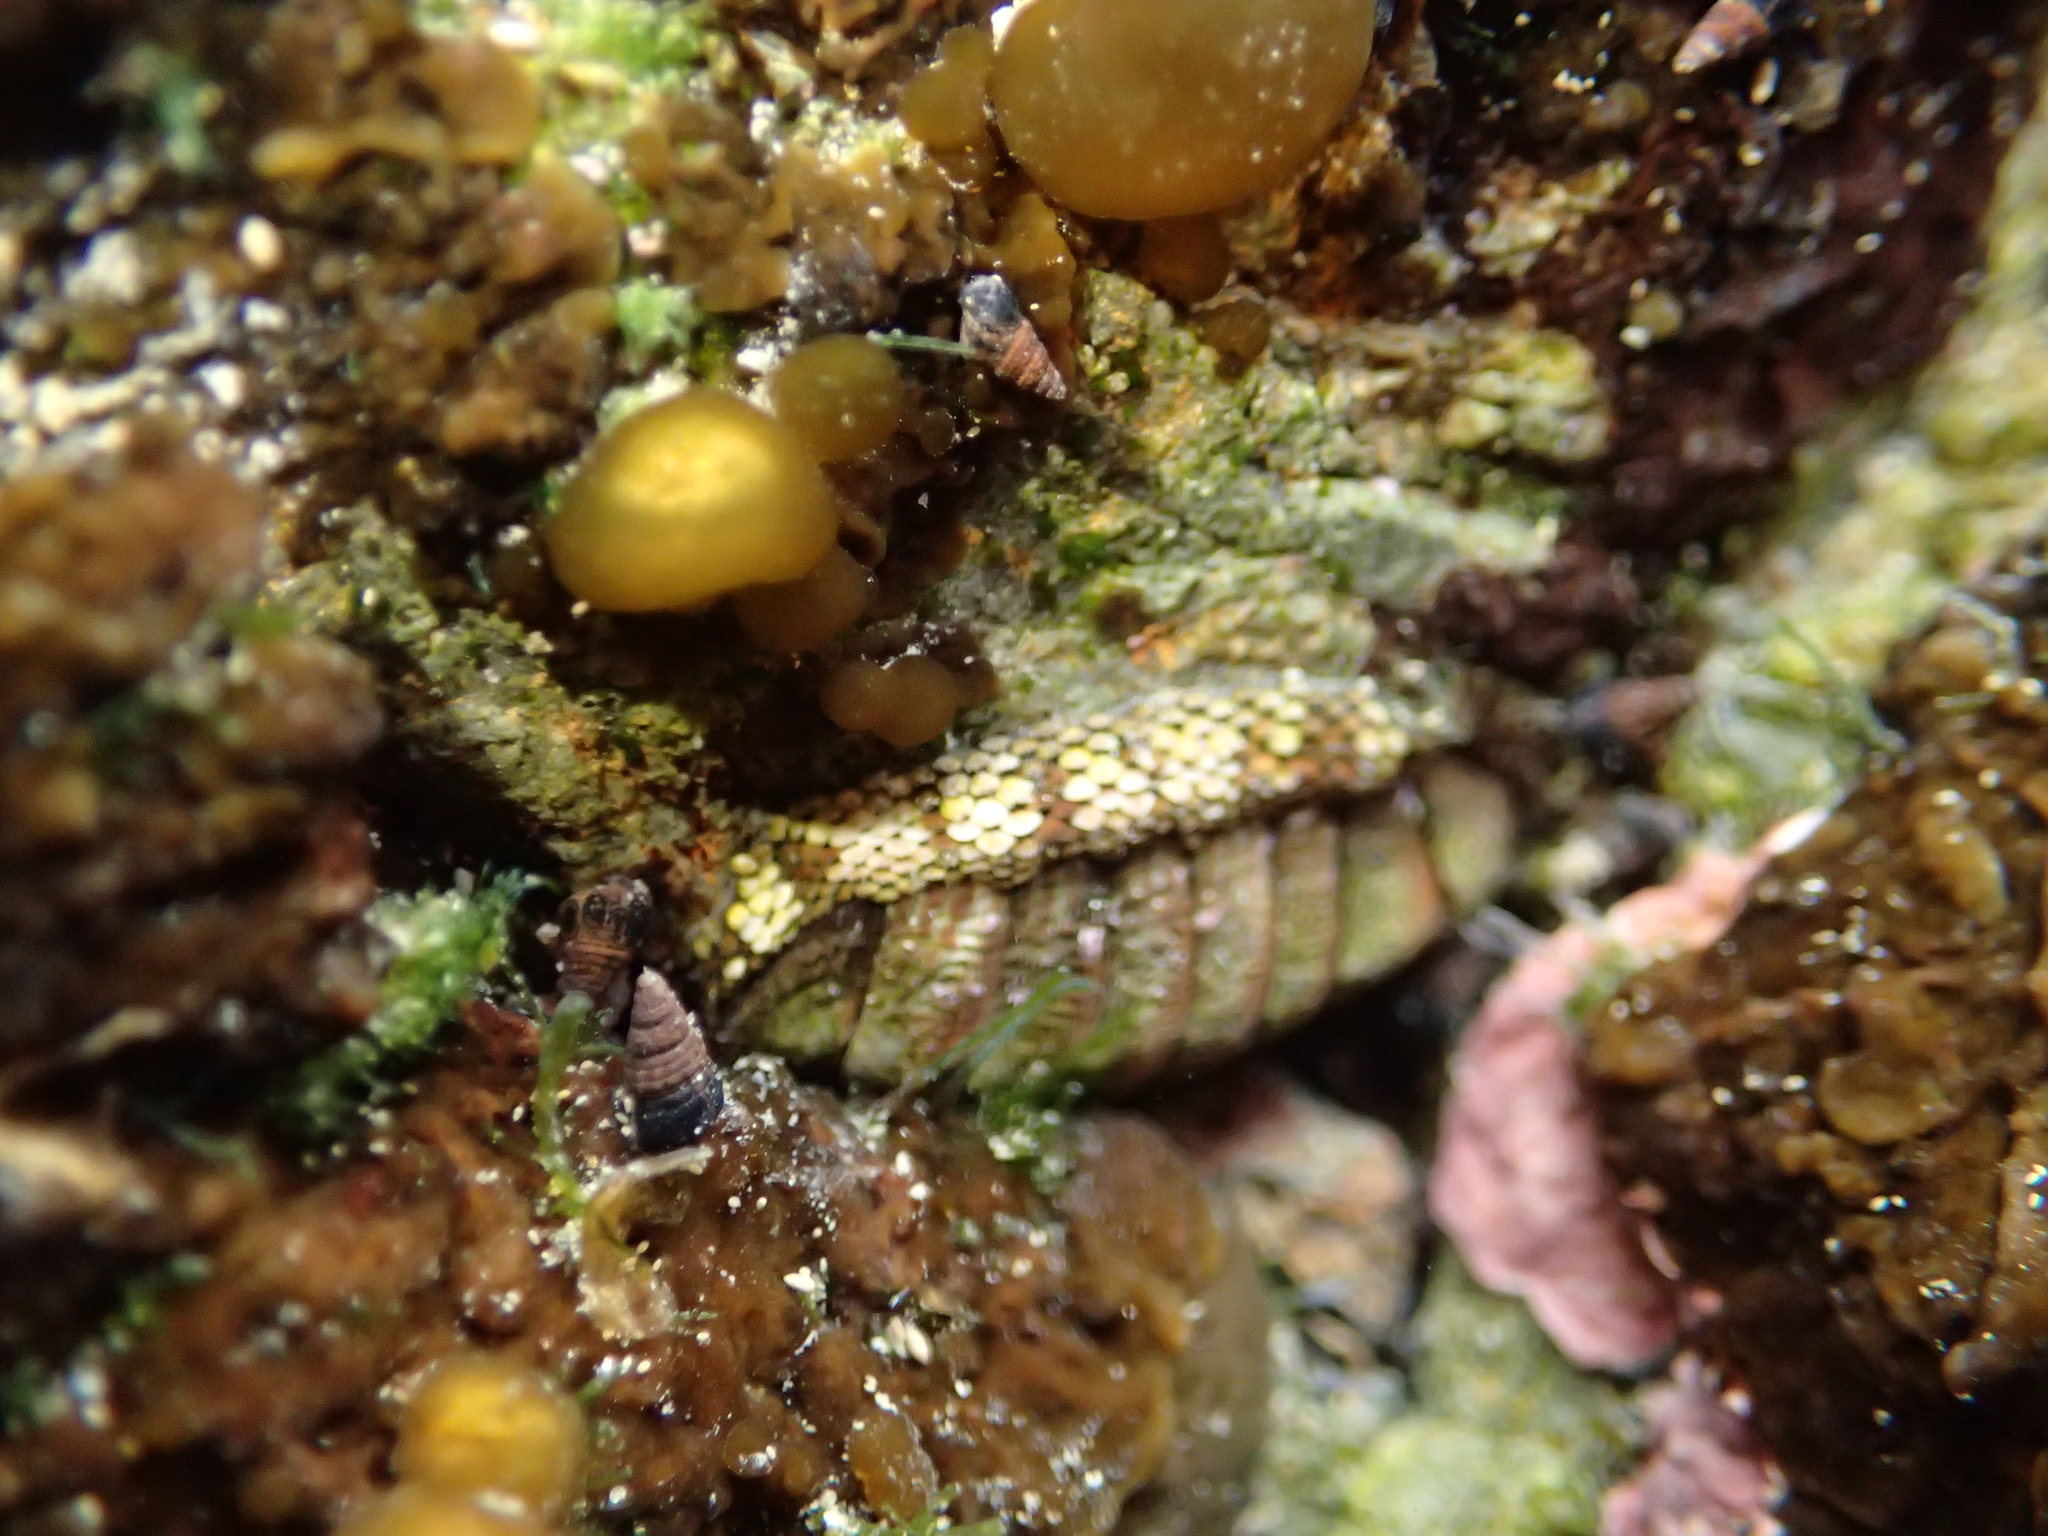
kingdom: Animalia
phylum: Mollusca
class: Polyplacophora
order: Chitonida
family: Chitonidae
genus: Sypharochiton
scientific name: Sypharochiton pelliserpentis
